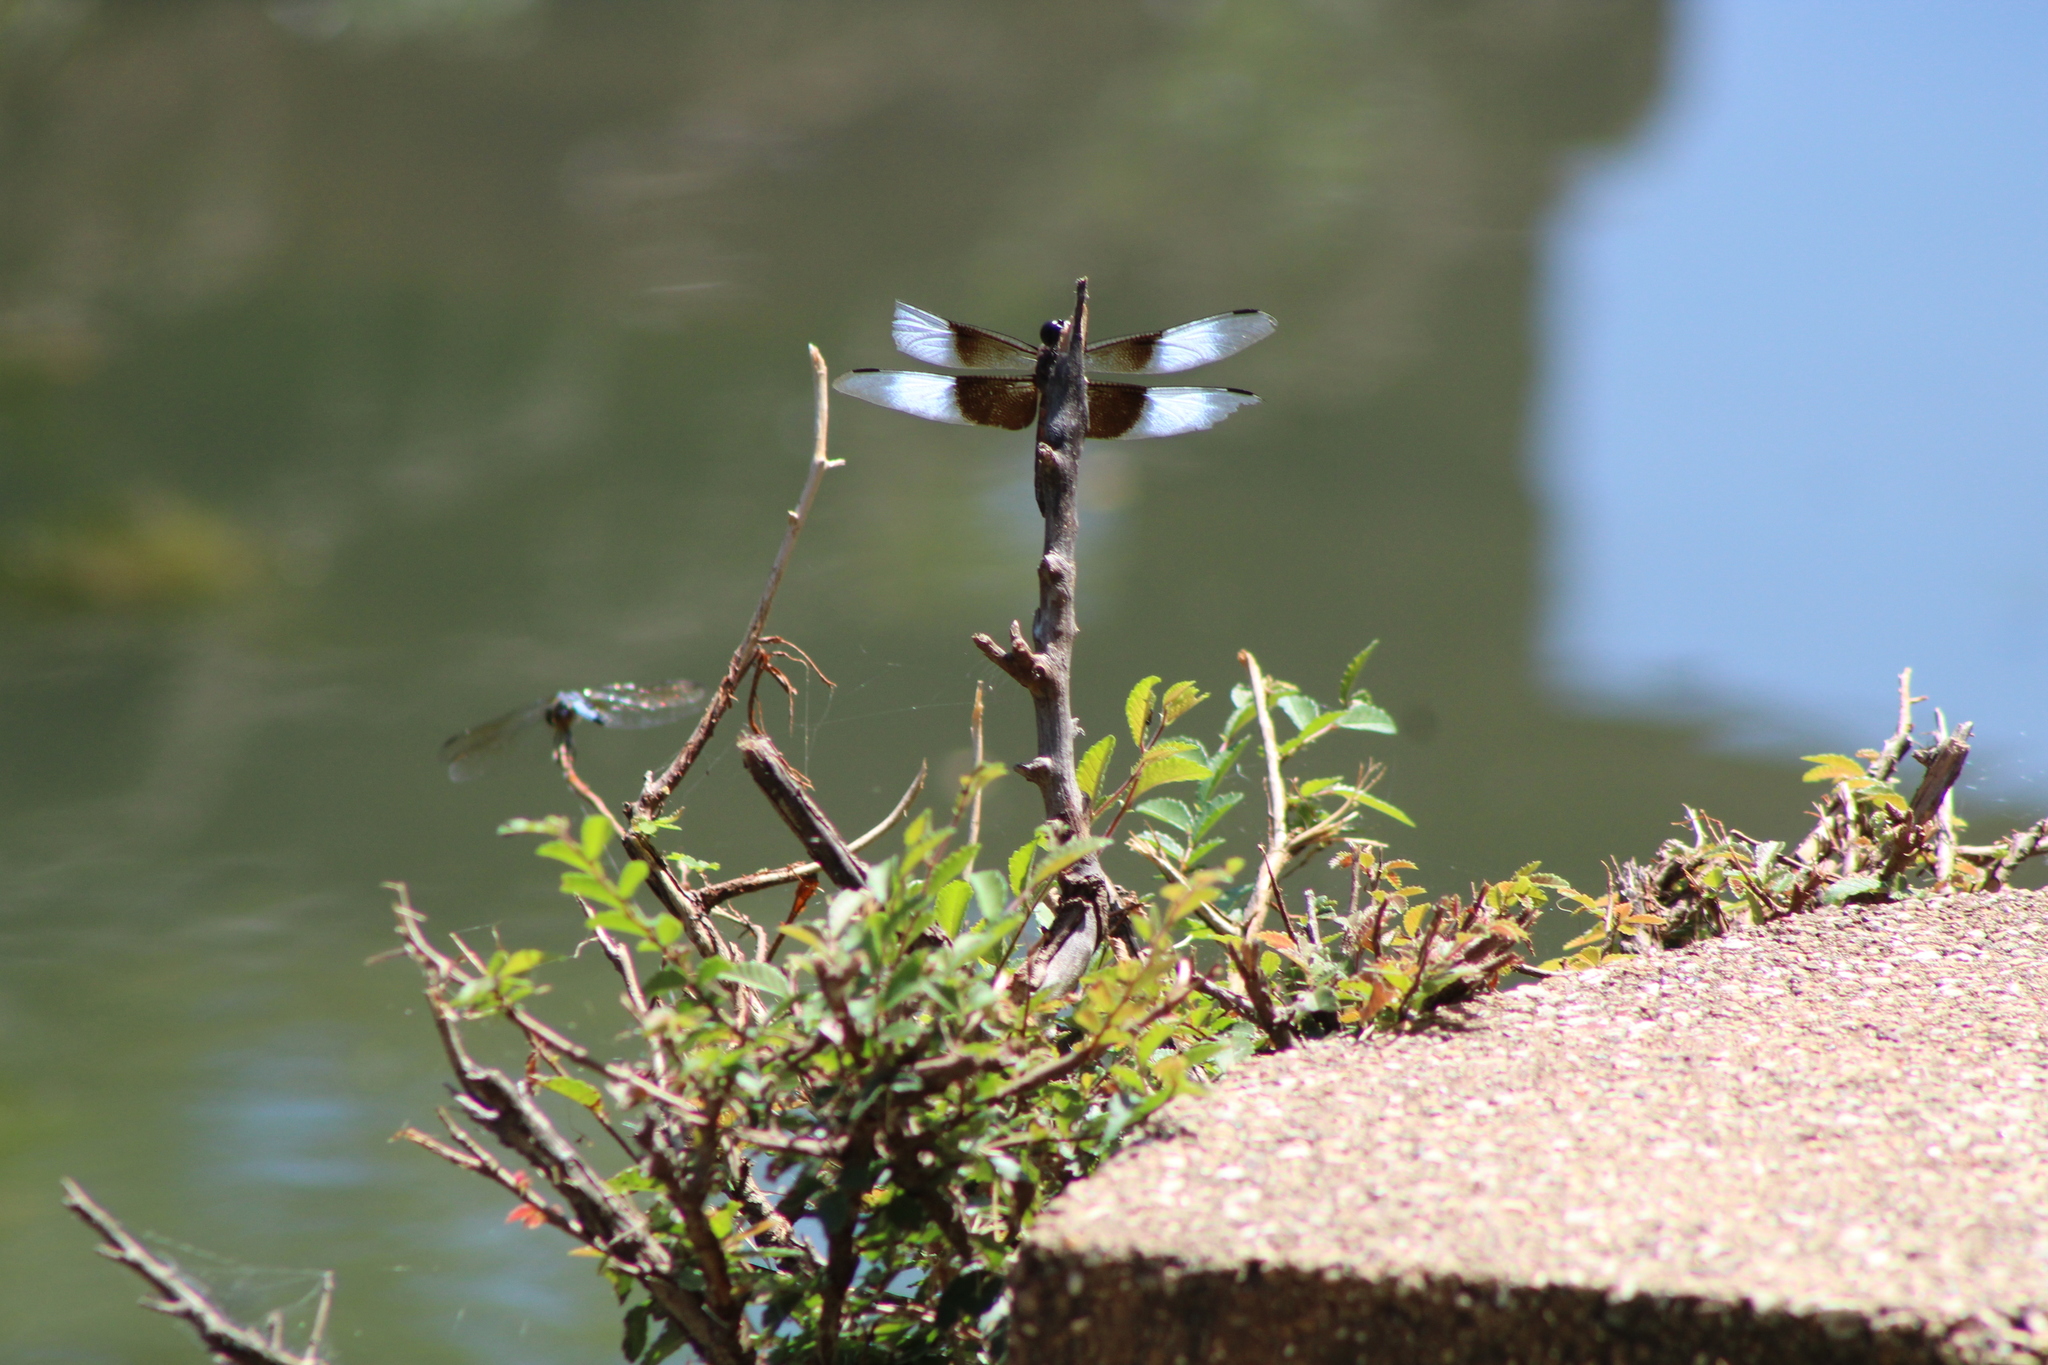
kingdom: Animalia
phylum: Arthropoda
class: Insecta
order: Odonata
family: Libellulidae
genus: Libellula
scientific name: Libellula luctuosa
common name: Widow skimmer
